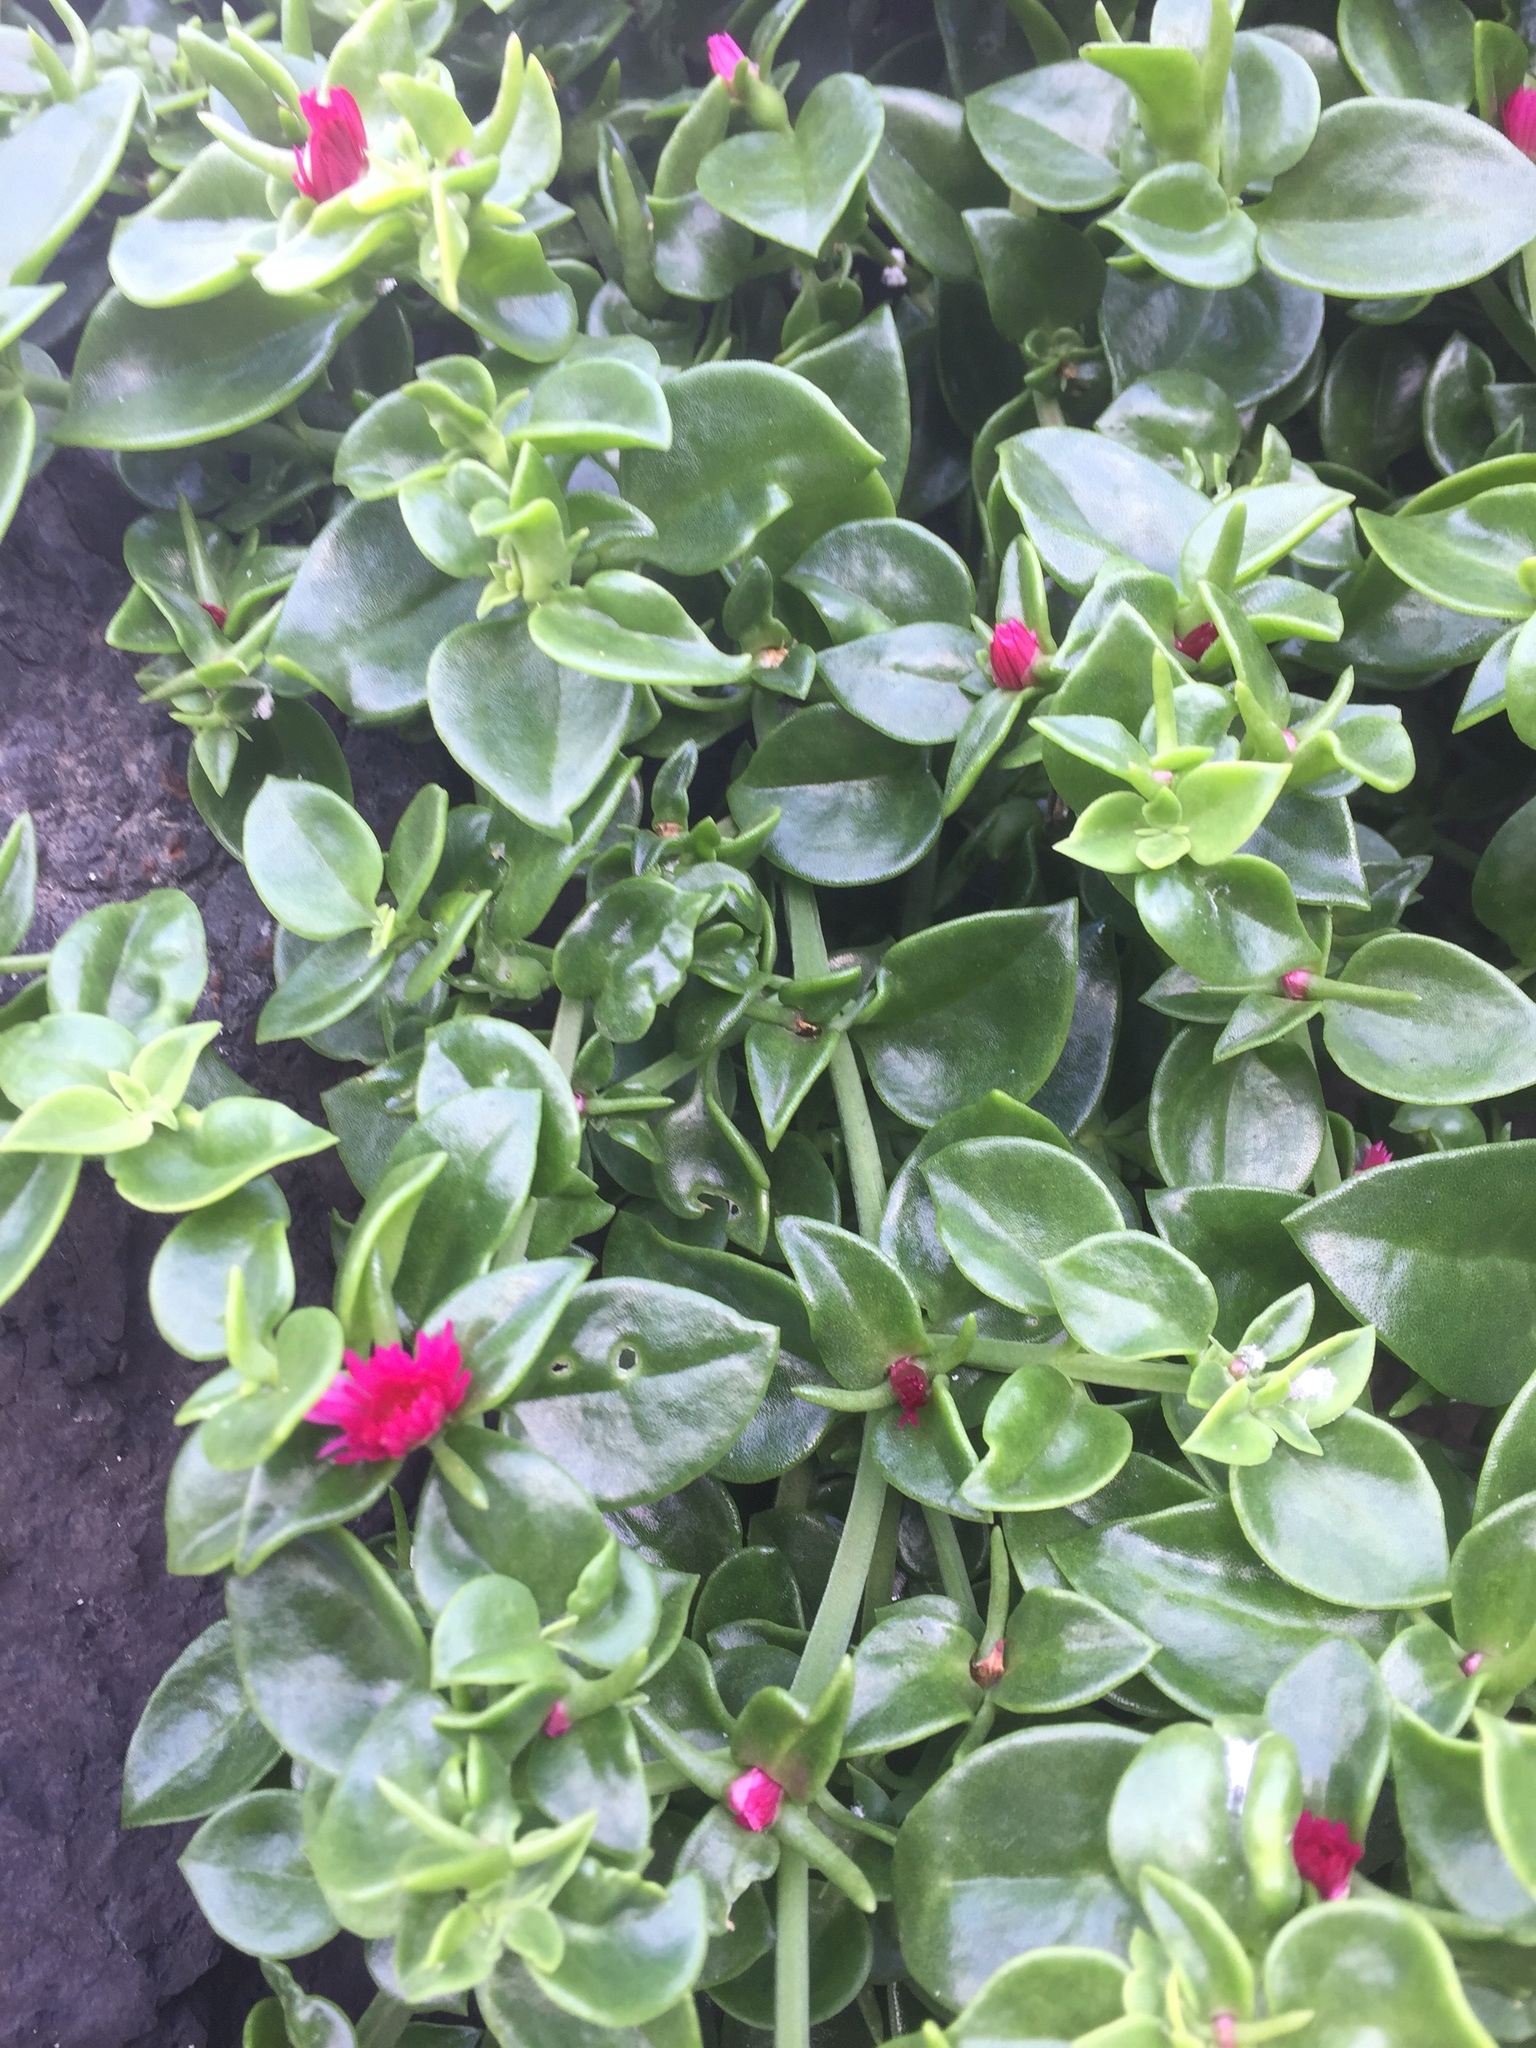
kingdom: Plantae
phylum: Tracheophyta
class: Magnoliopsida
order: Caryophyllales
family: Aizoaceae
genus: Mesembryanthemum
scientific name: Mesembryanthemum cordifolium
